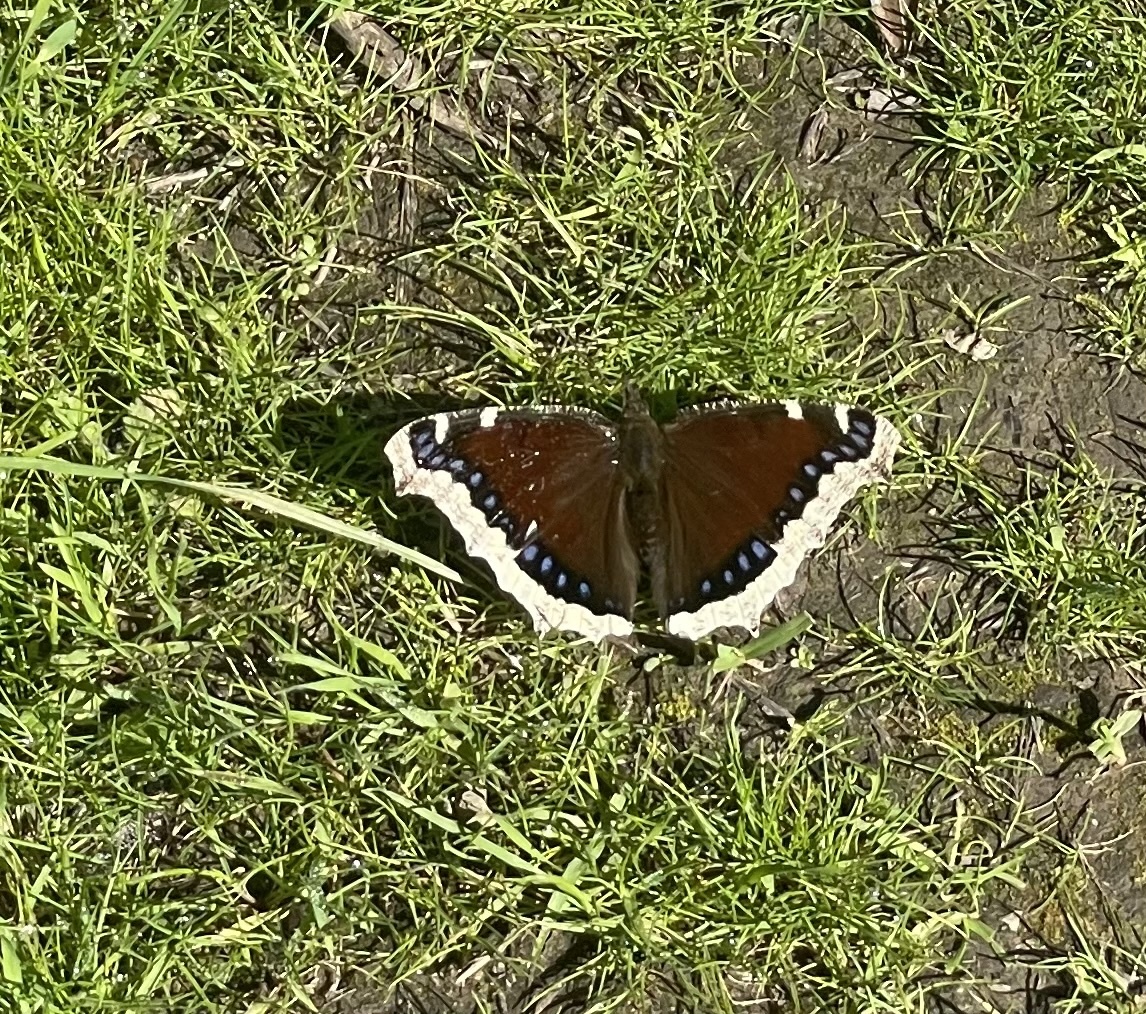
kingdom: Animalia
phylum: Arthropoda
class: Insecta
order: Lepidoptera
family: Nymphalidae
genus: Nymphalis
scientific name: Nymphalis antiopa
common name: Camberwell beauty
